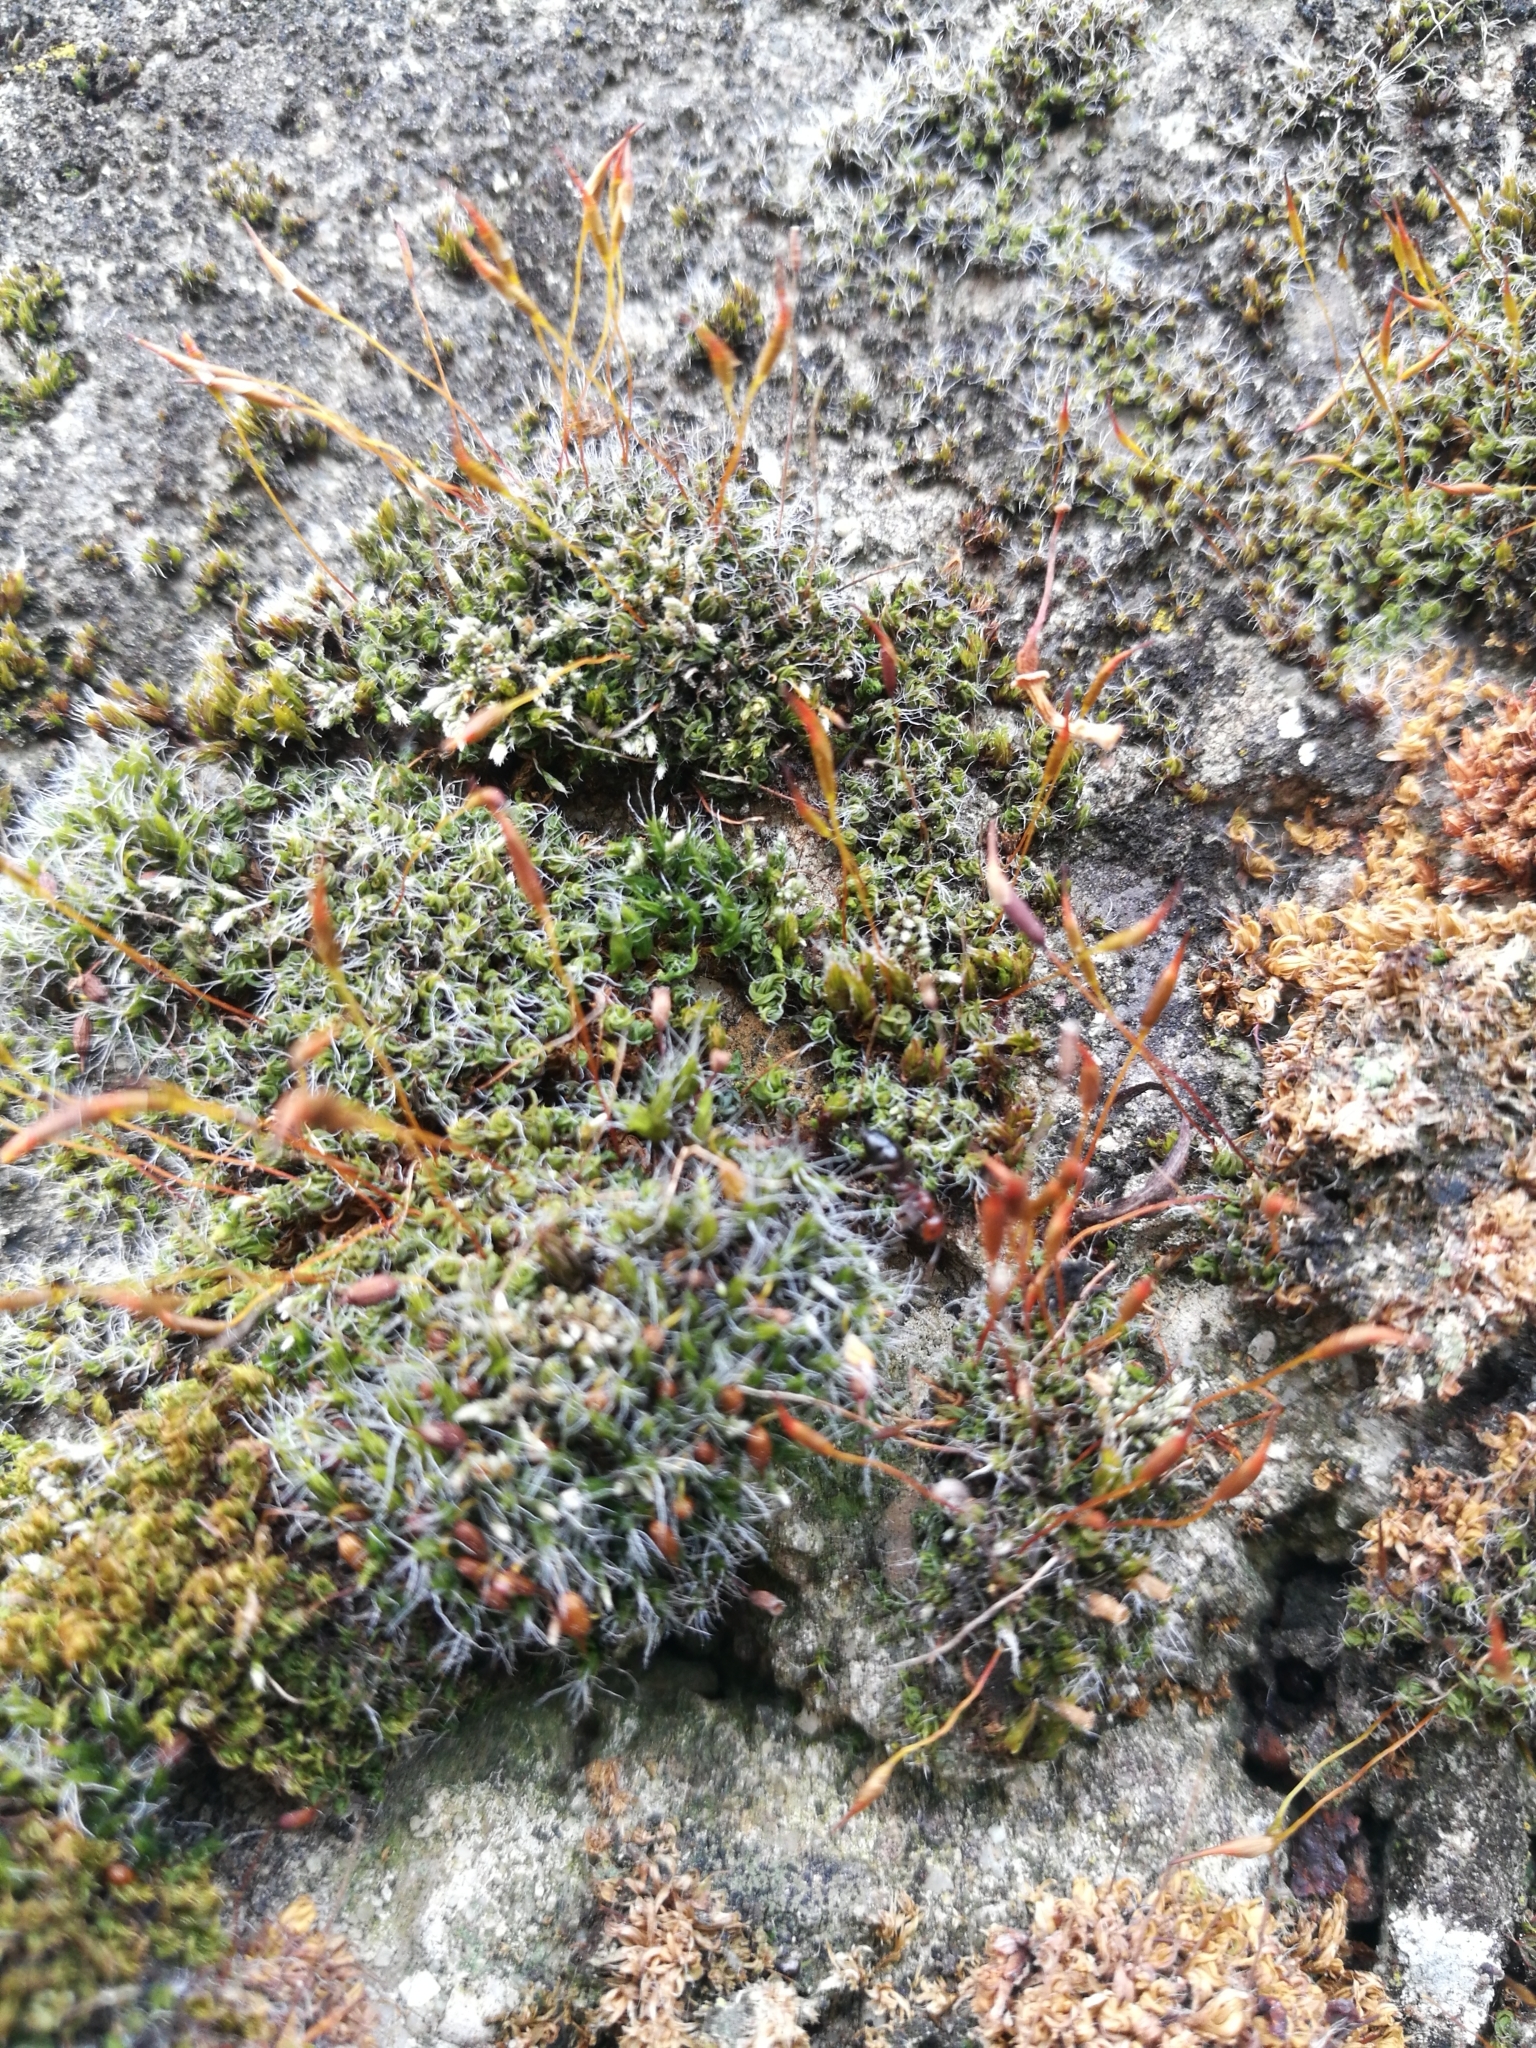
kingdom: Animalia
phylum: Arthropoda
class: Insecta
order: Hymenoptera
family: Formicidae
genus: Camponotus
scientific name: Camponotus lateralis
